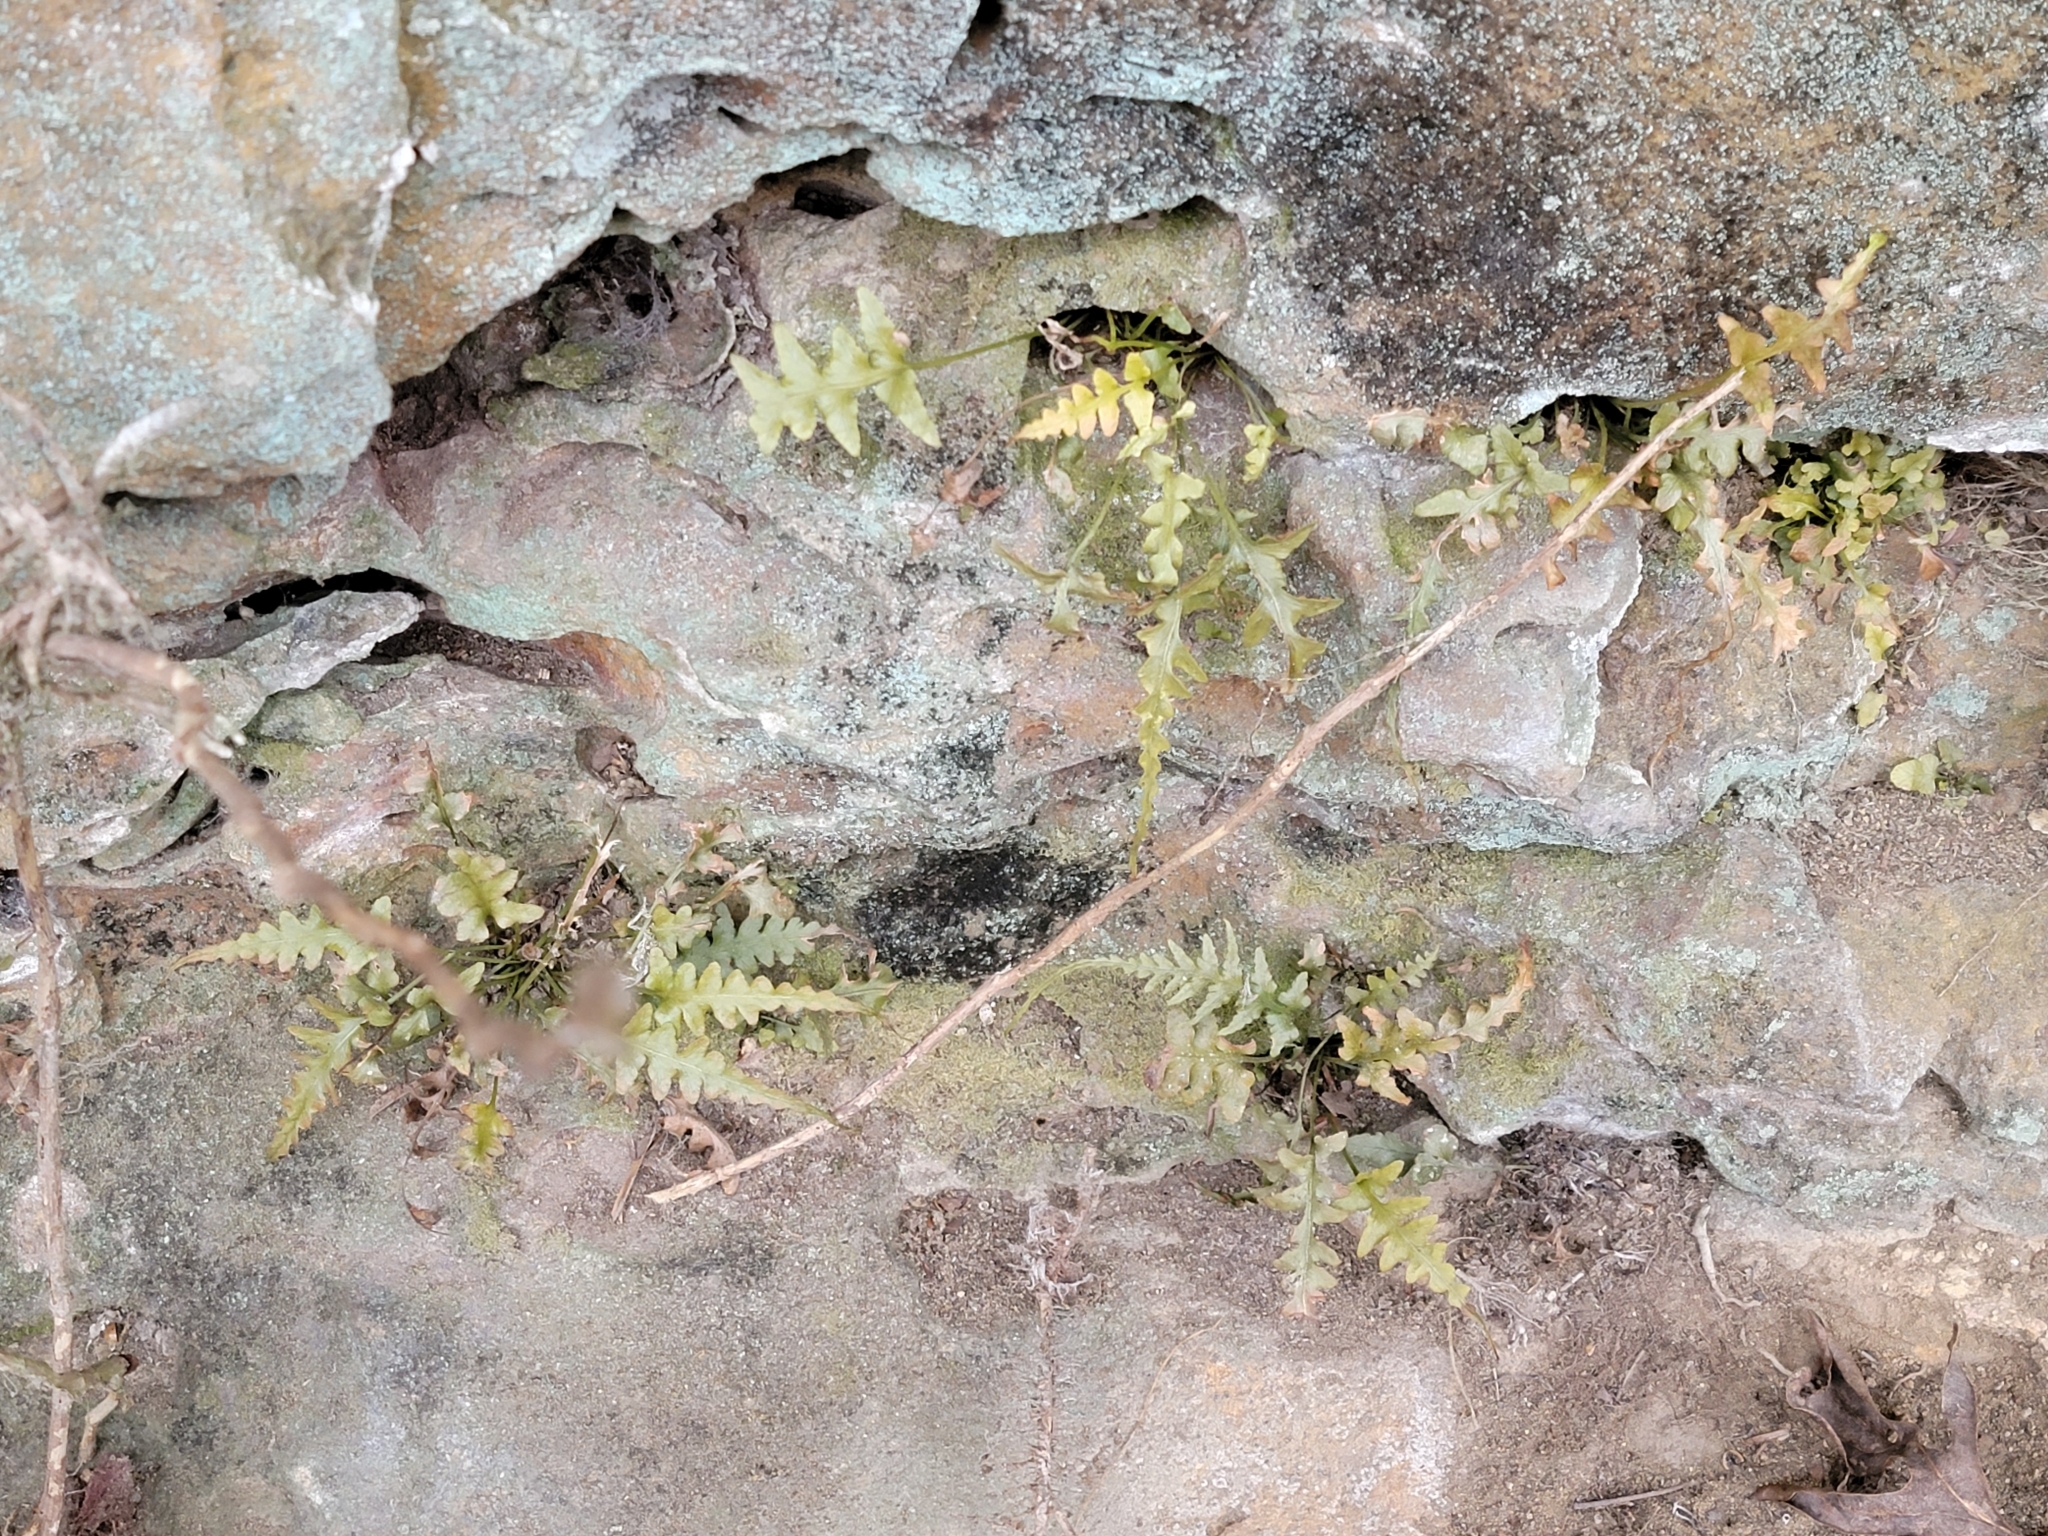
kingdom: Plantae
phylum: Tracheophyta
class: Polypodiopsida
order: Polypodiales
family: Aspleniaceae
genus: Asplenium
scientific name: Asplenium pinnatifidum
